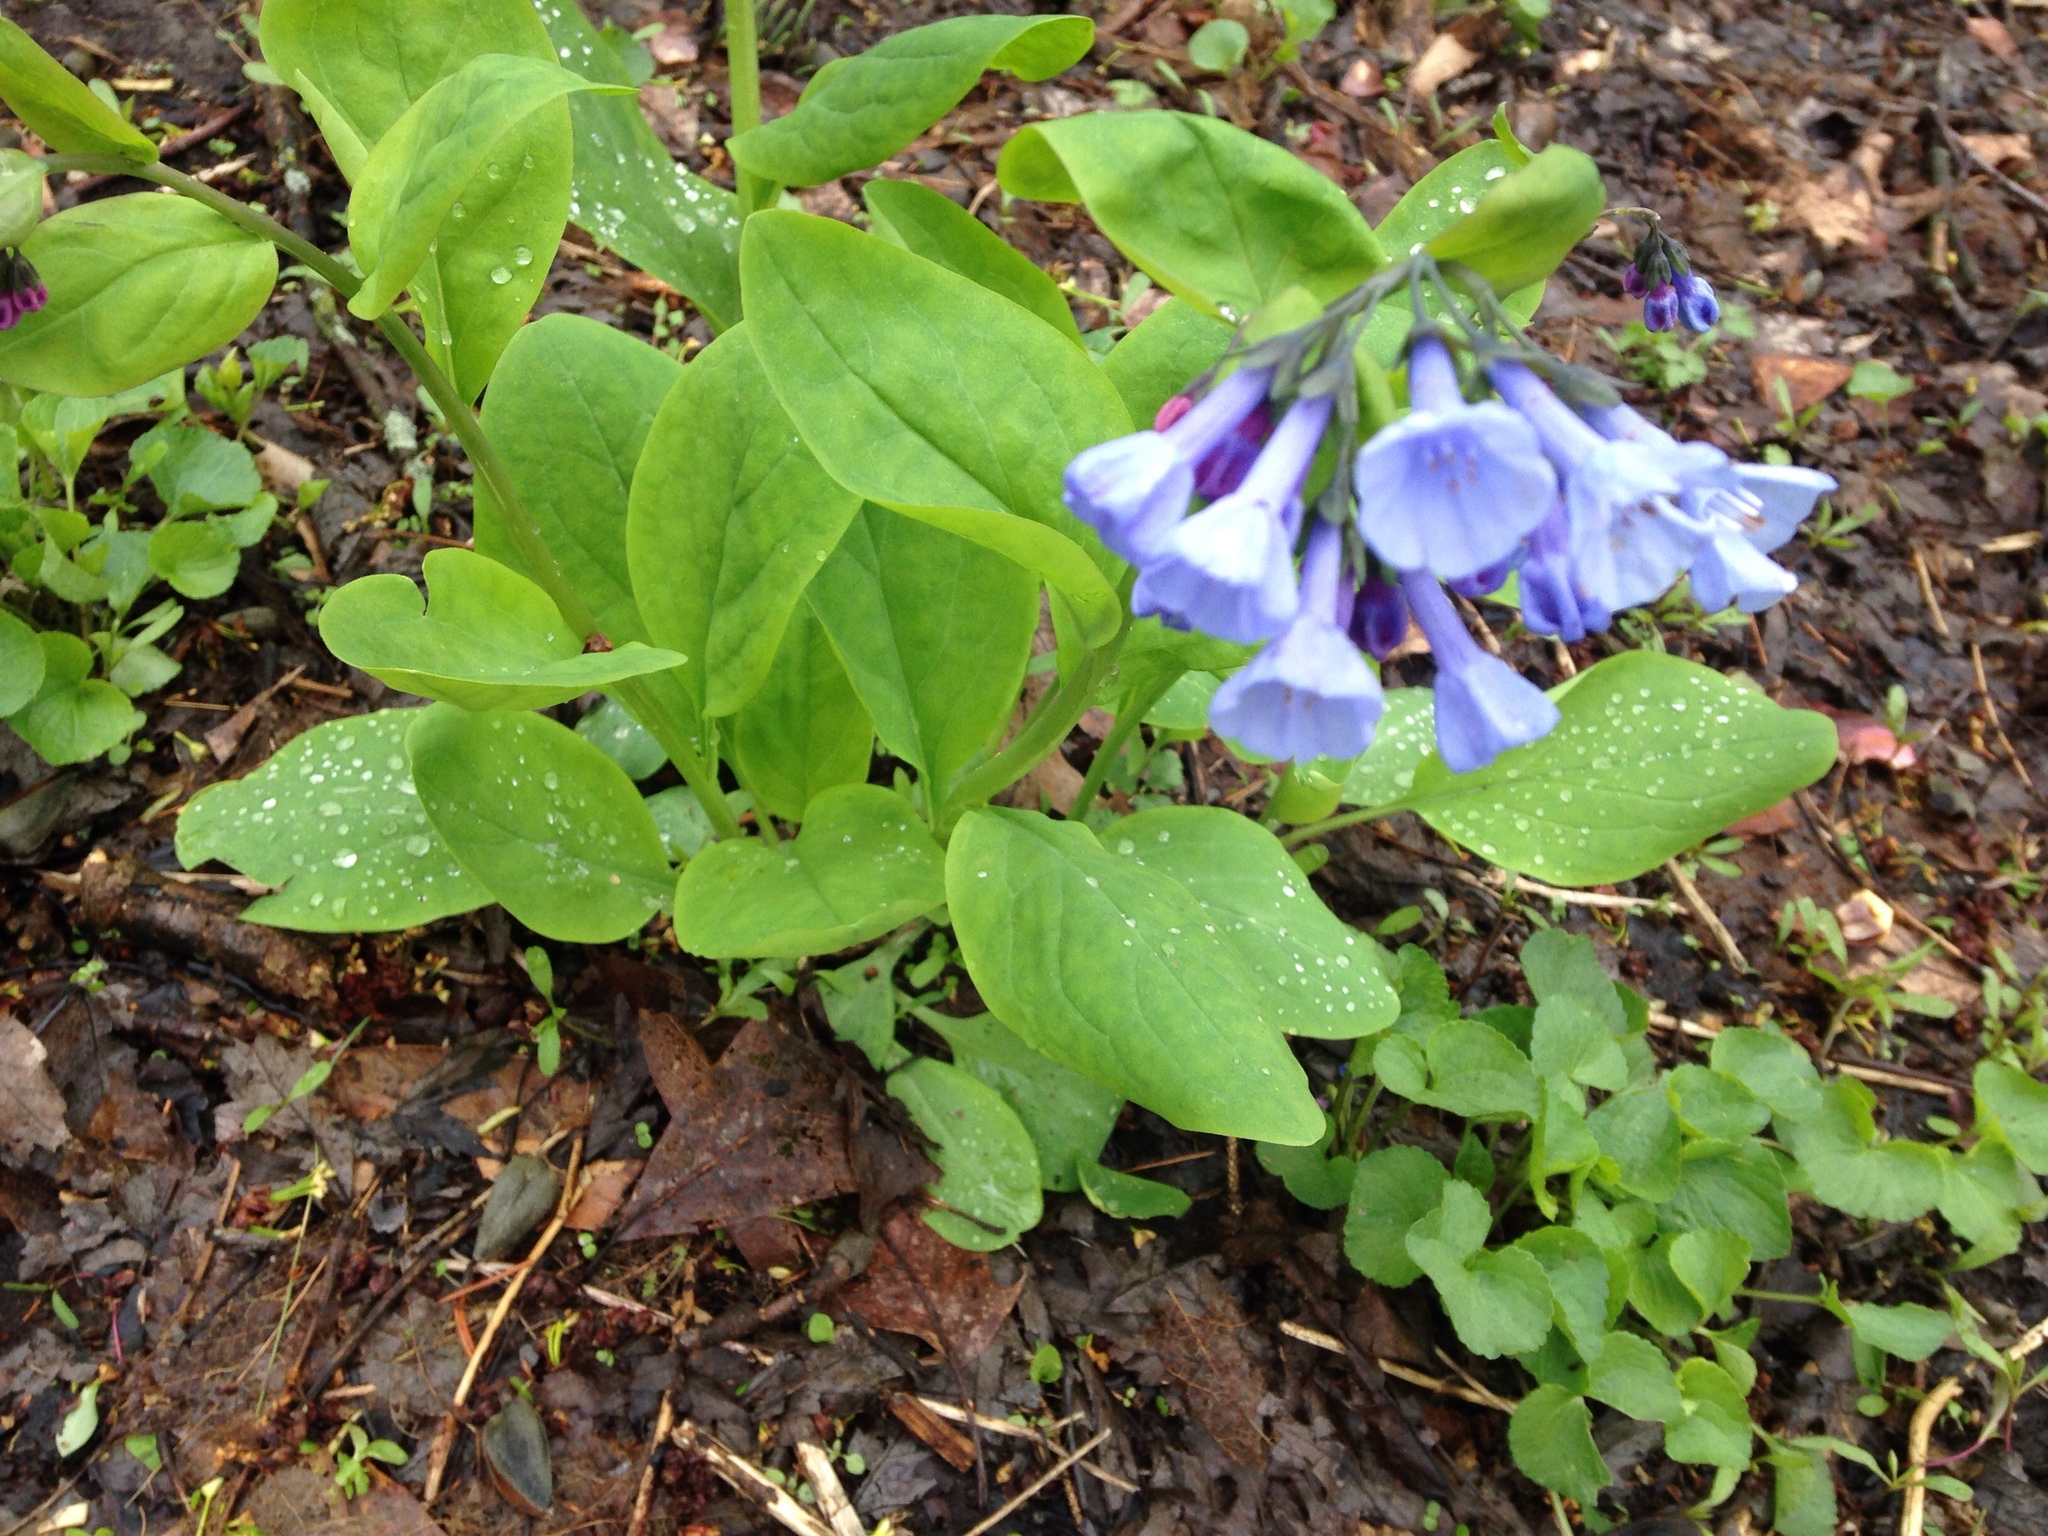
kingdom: Plantae
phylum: Tracheophyta
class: Magnoliopsida
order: Boraginales
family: Boraginaceae
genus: Mertensia
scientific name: Mertensia virginica
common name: Virginia bluebells
